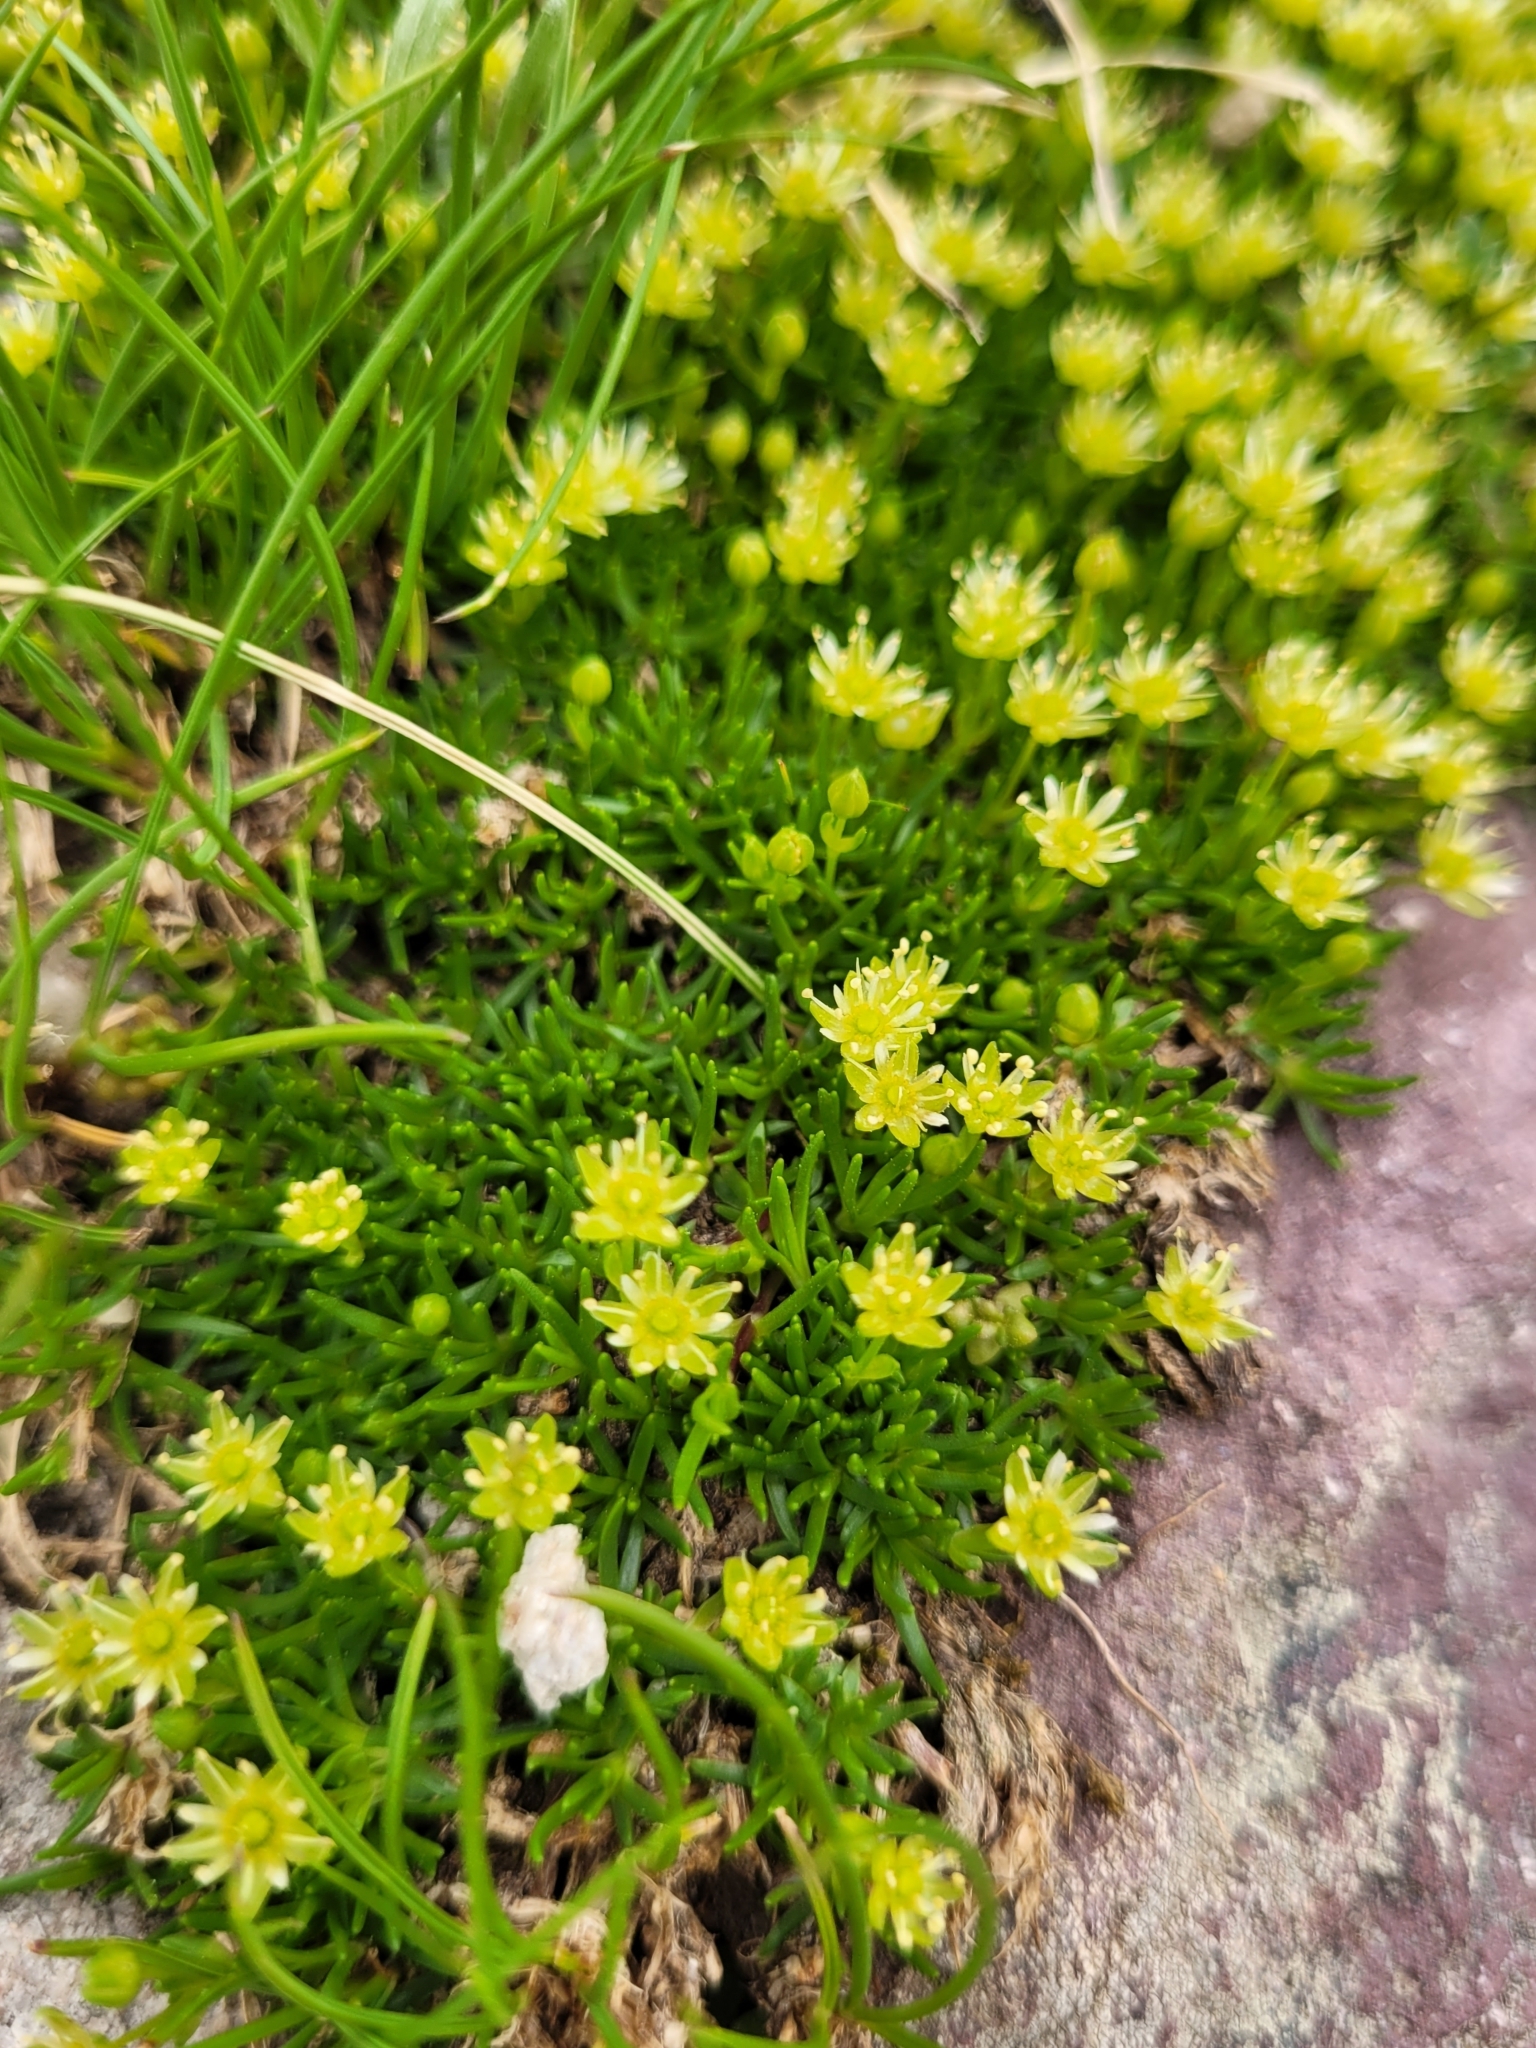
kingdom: Plantae
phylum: Tracheophyta
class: Magnoliopsida
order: Caryophyllales
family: Caryophyllaceae
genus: Cherleria
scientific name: Cherleria sedoides
